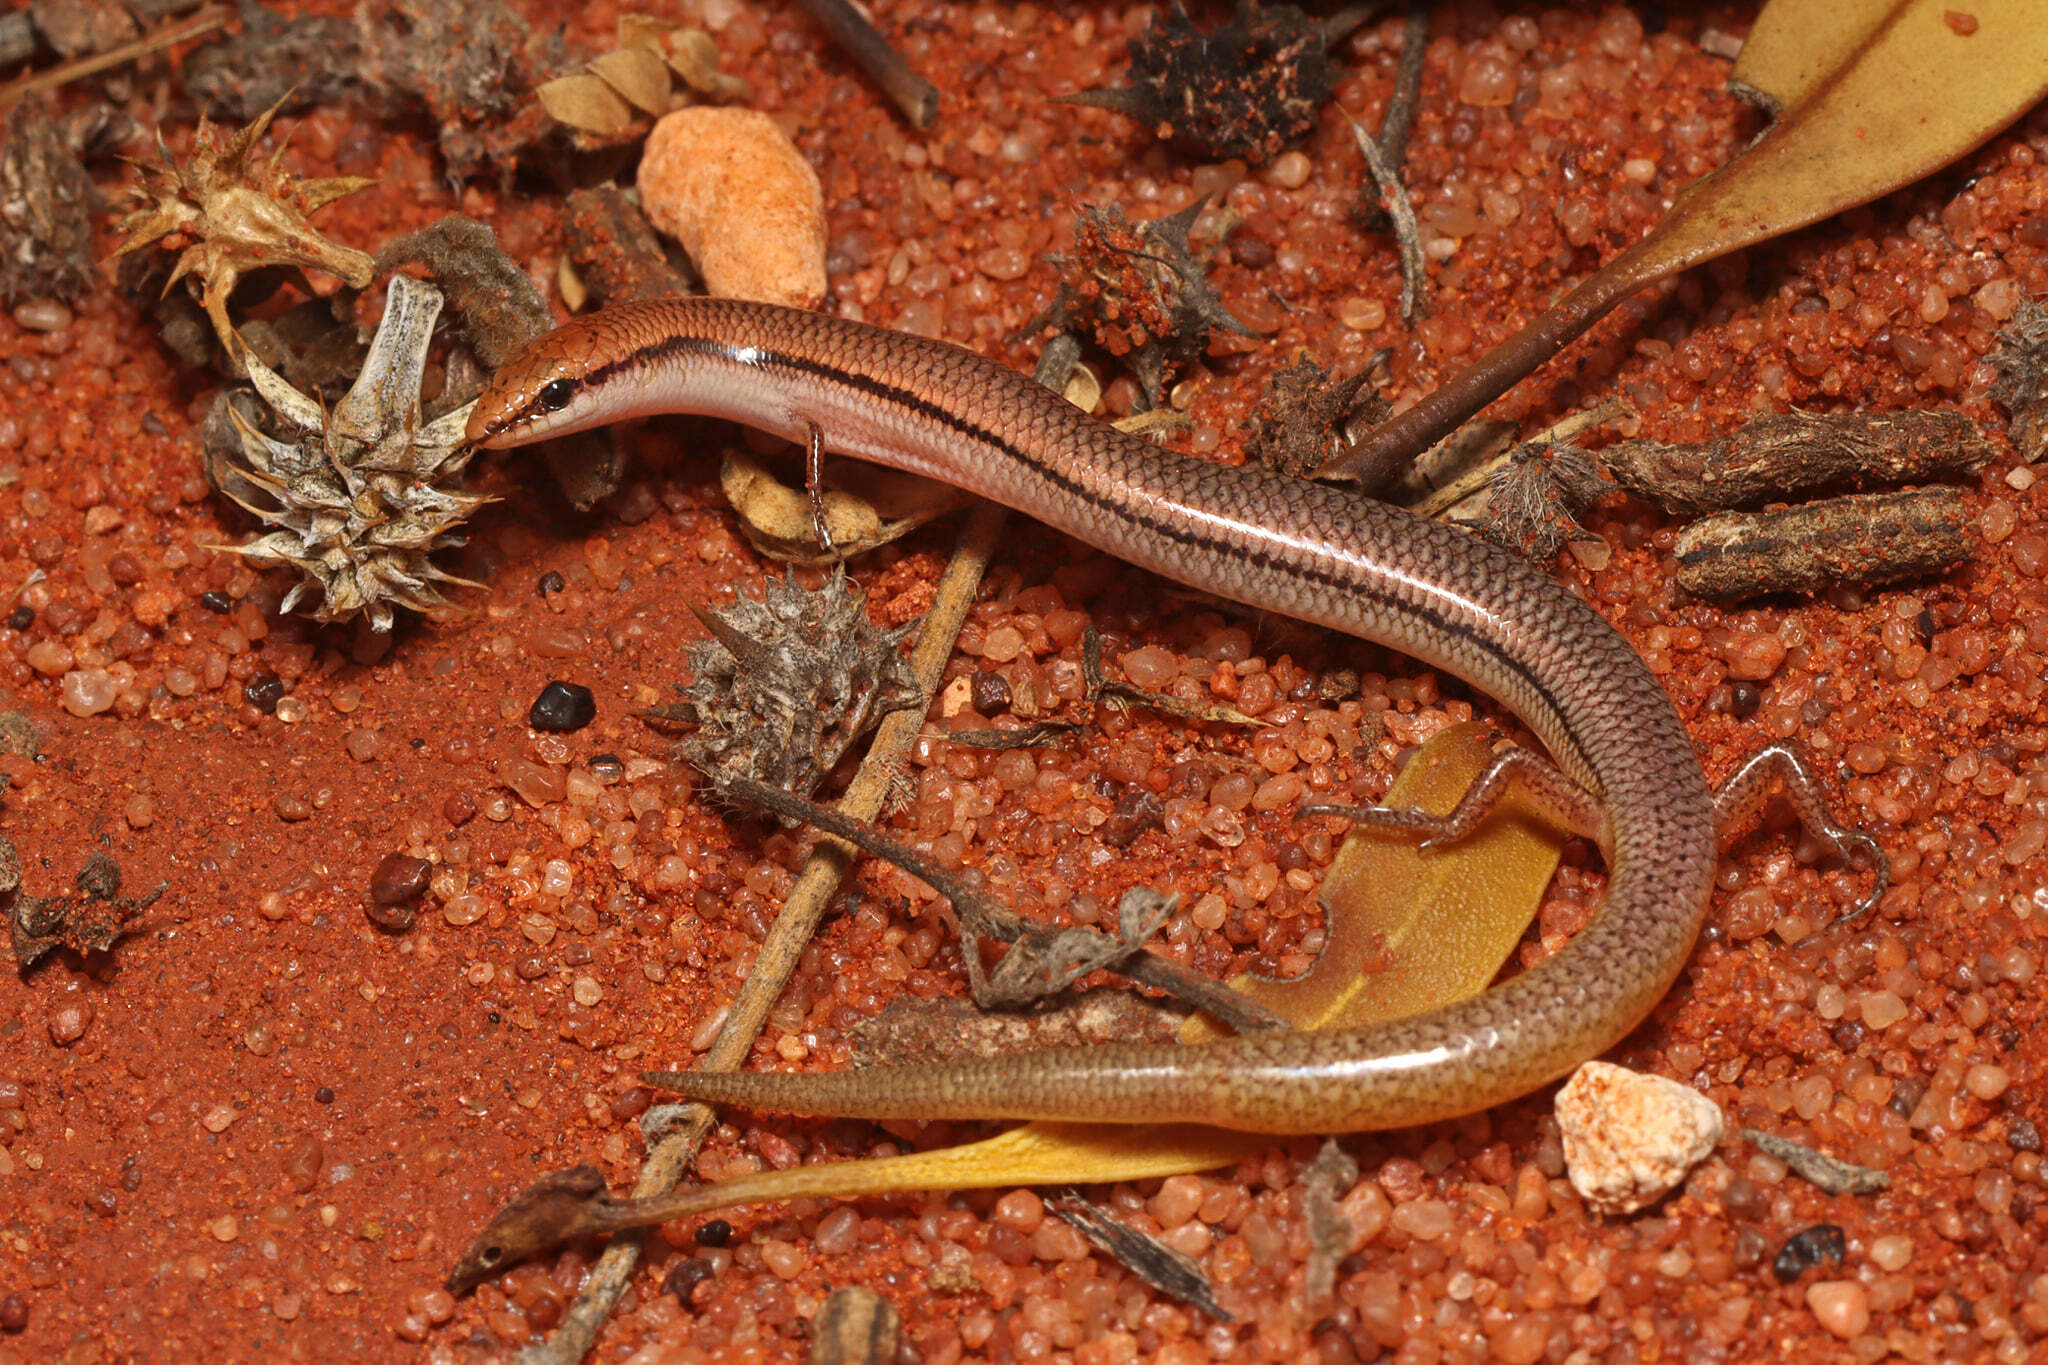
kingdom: Animalia
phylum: Chordata
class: Squamata
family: Scincidae
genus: Lerista
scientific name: Lerista taeniata
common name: Ribbon slider
